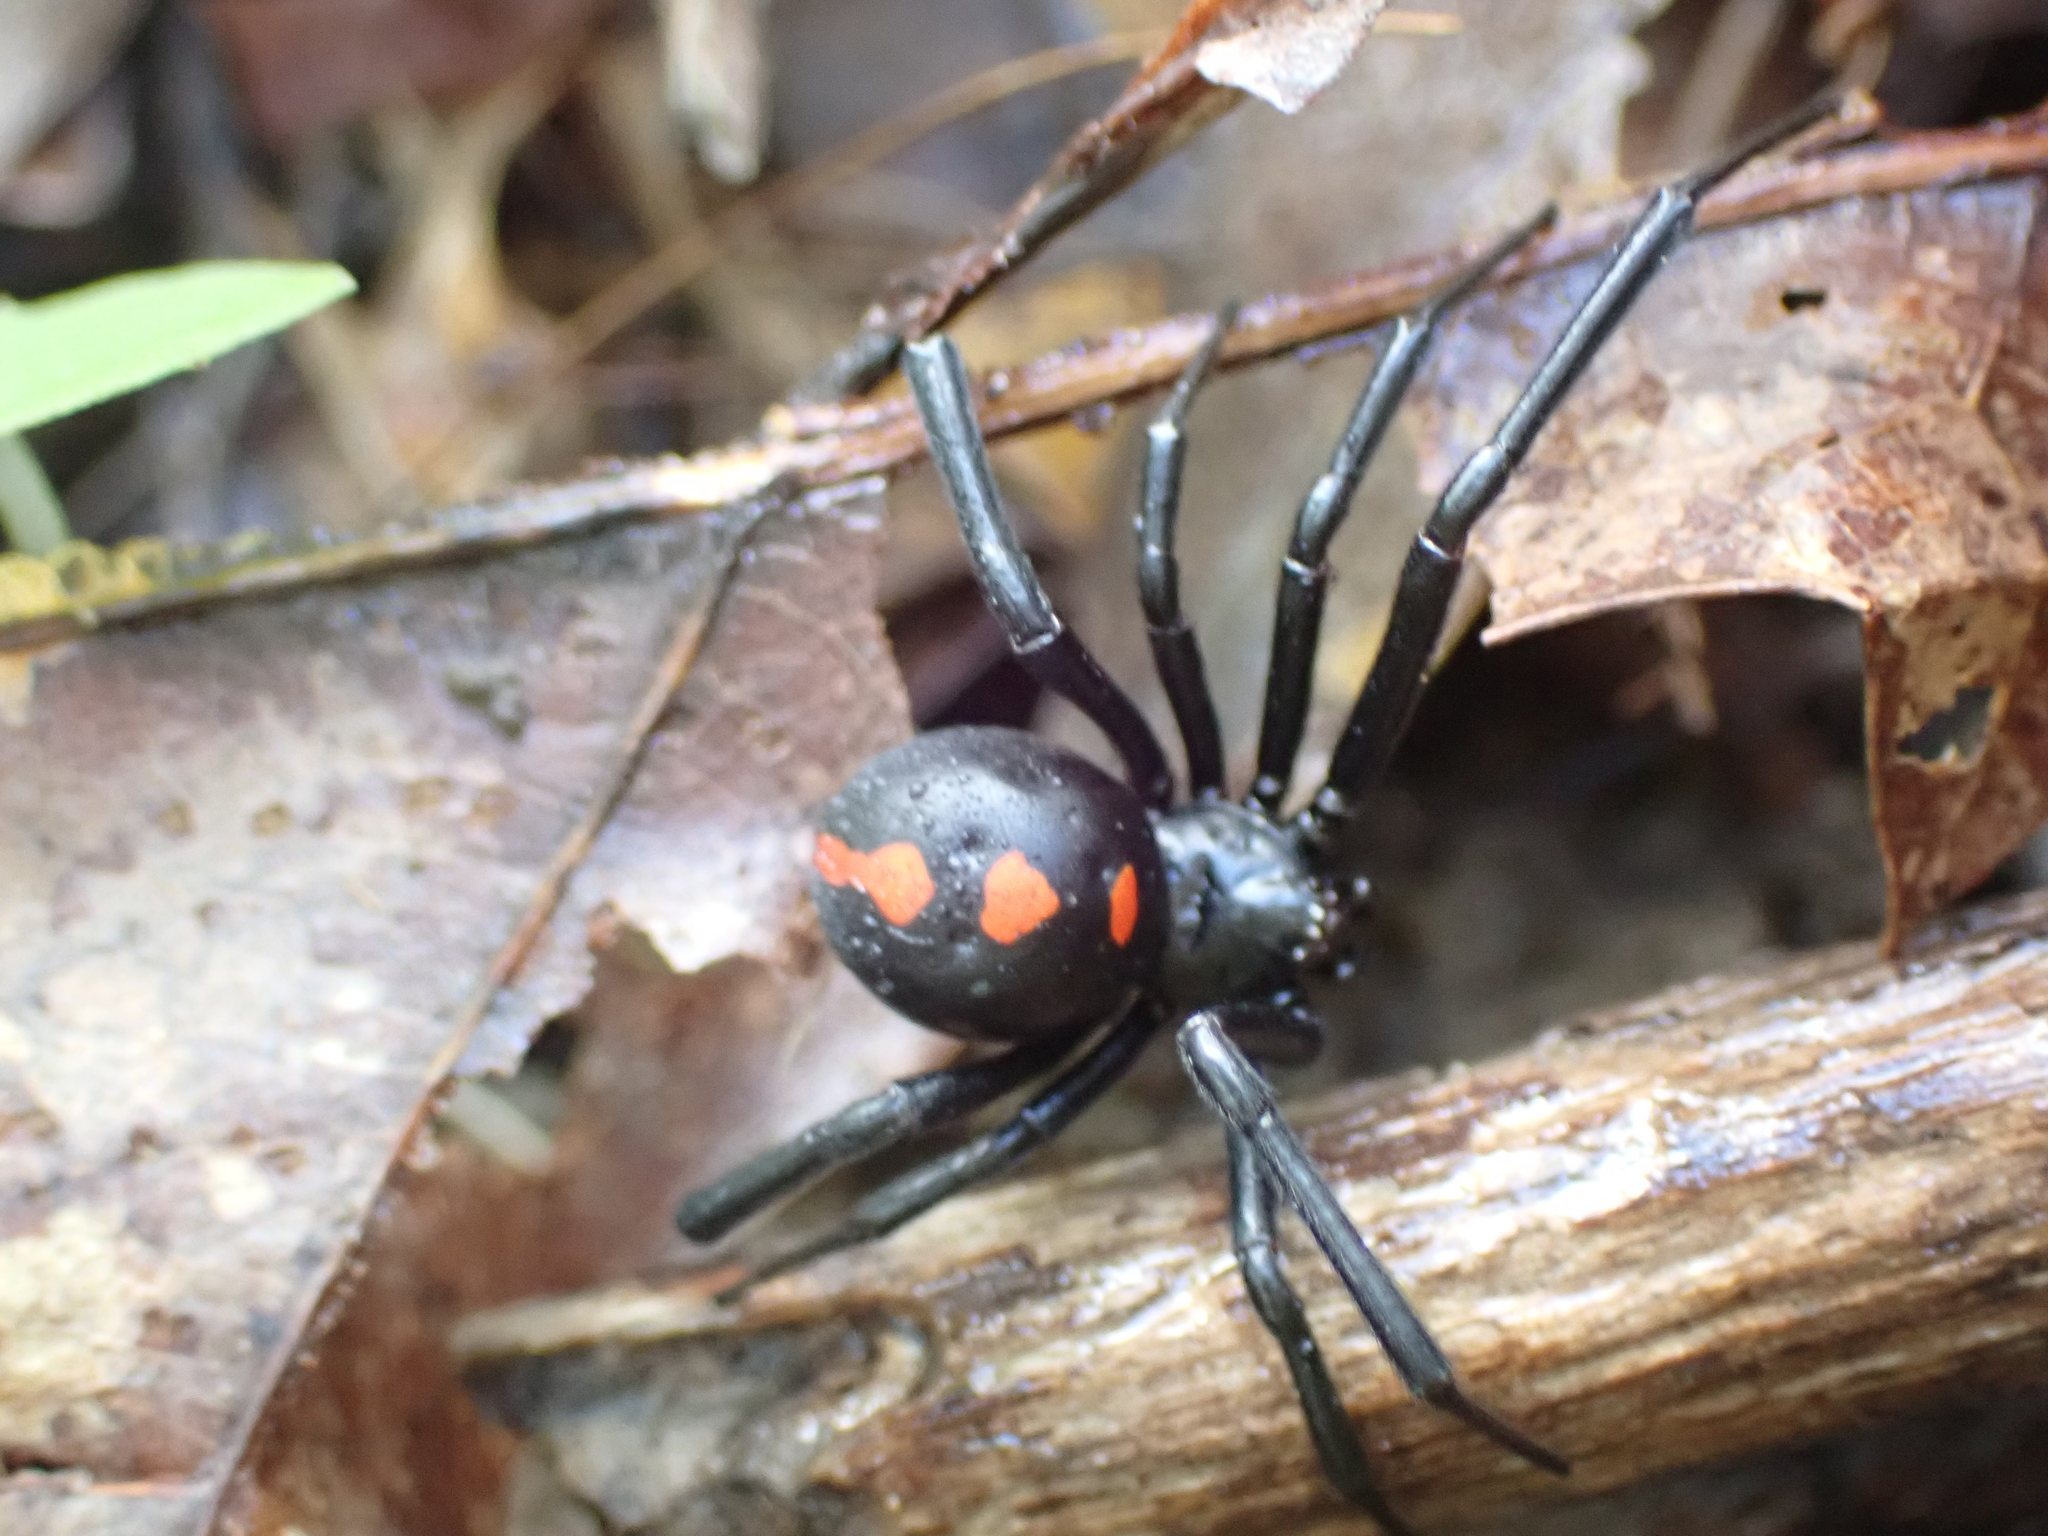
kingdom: Animalia
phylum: Arthropoda
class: Arachnida
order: Araneae
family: Theridiidae
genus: Latrodectus
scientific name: Latrodectus variolus
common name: Northern black widow
